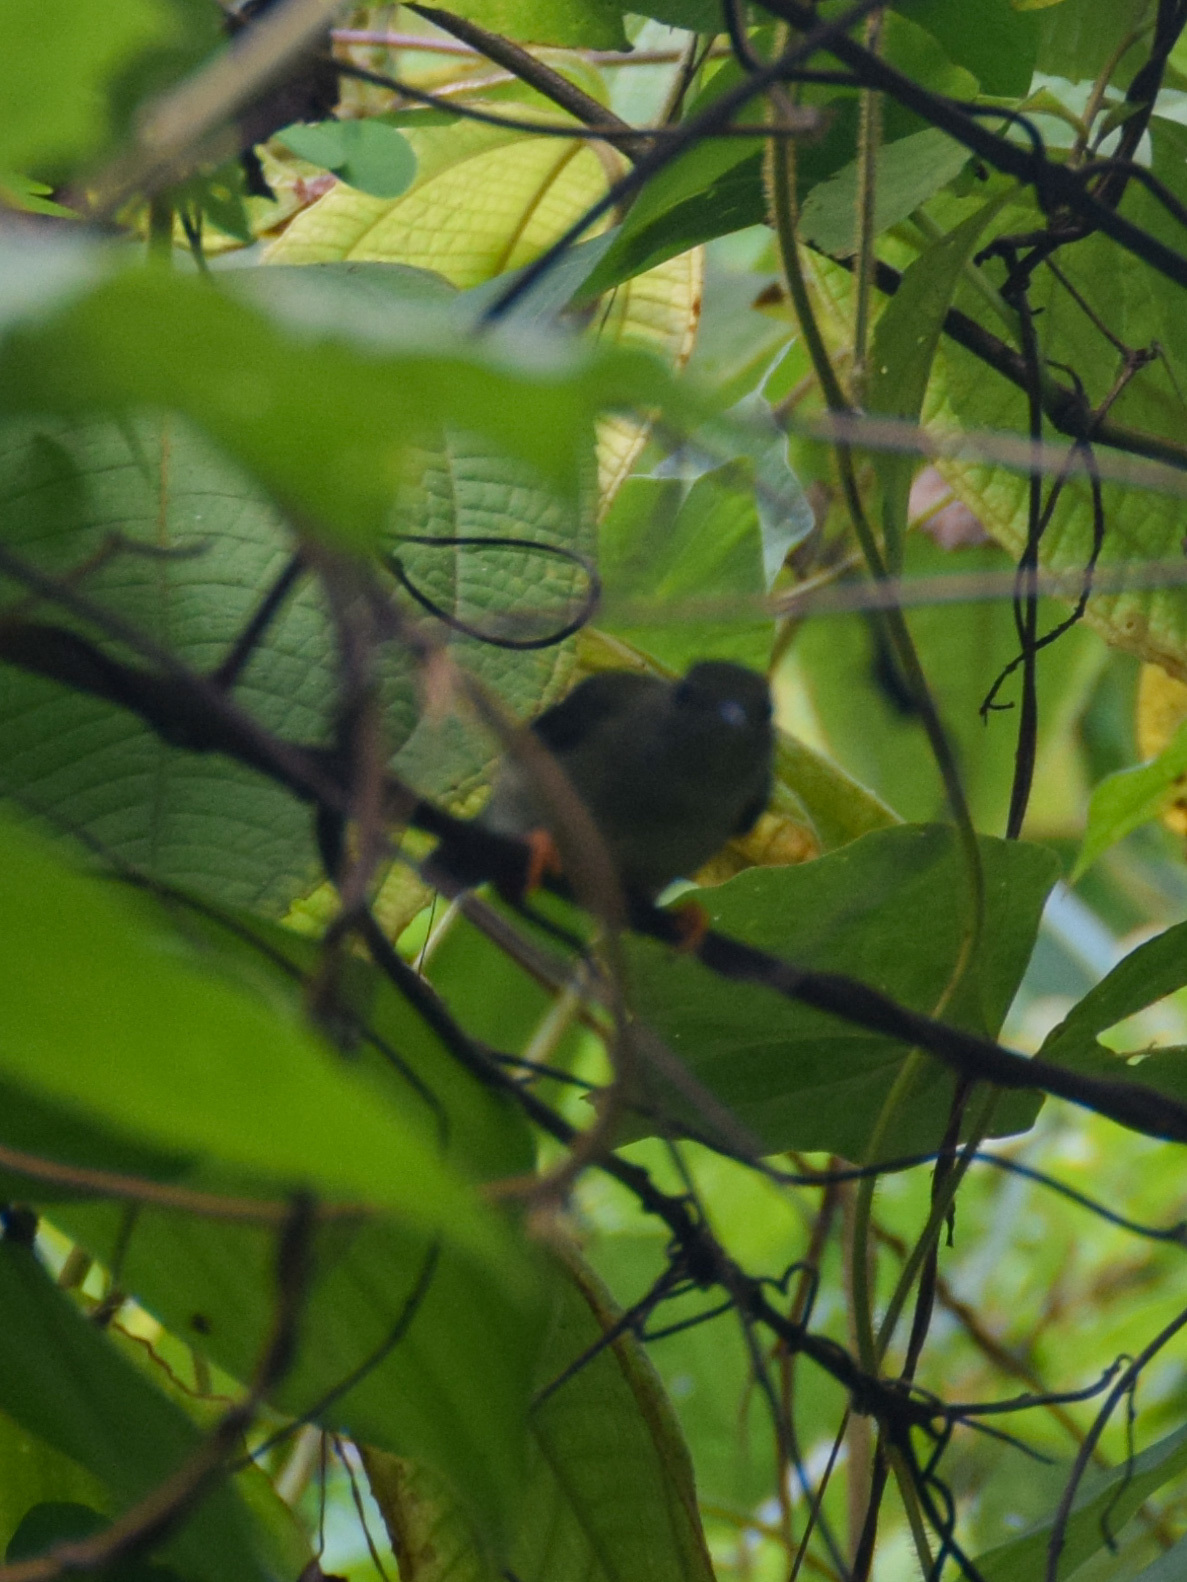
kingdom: Animalia
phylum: Chordata
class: Aves
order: Passeriformes
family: Pipridae
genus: Chiroxiphia
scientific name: Chiroxiphia pareola
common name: Blue-backed manakin
